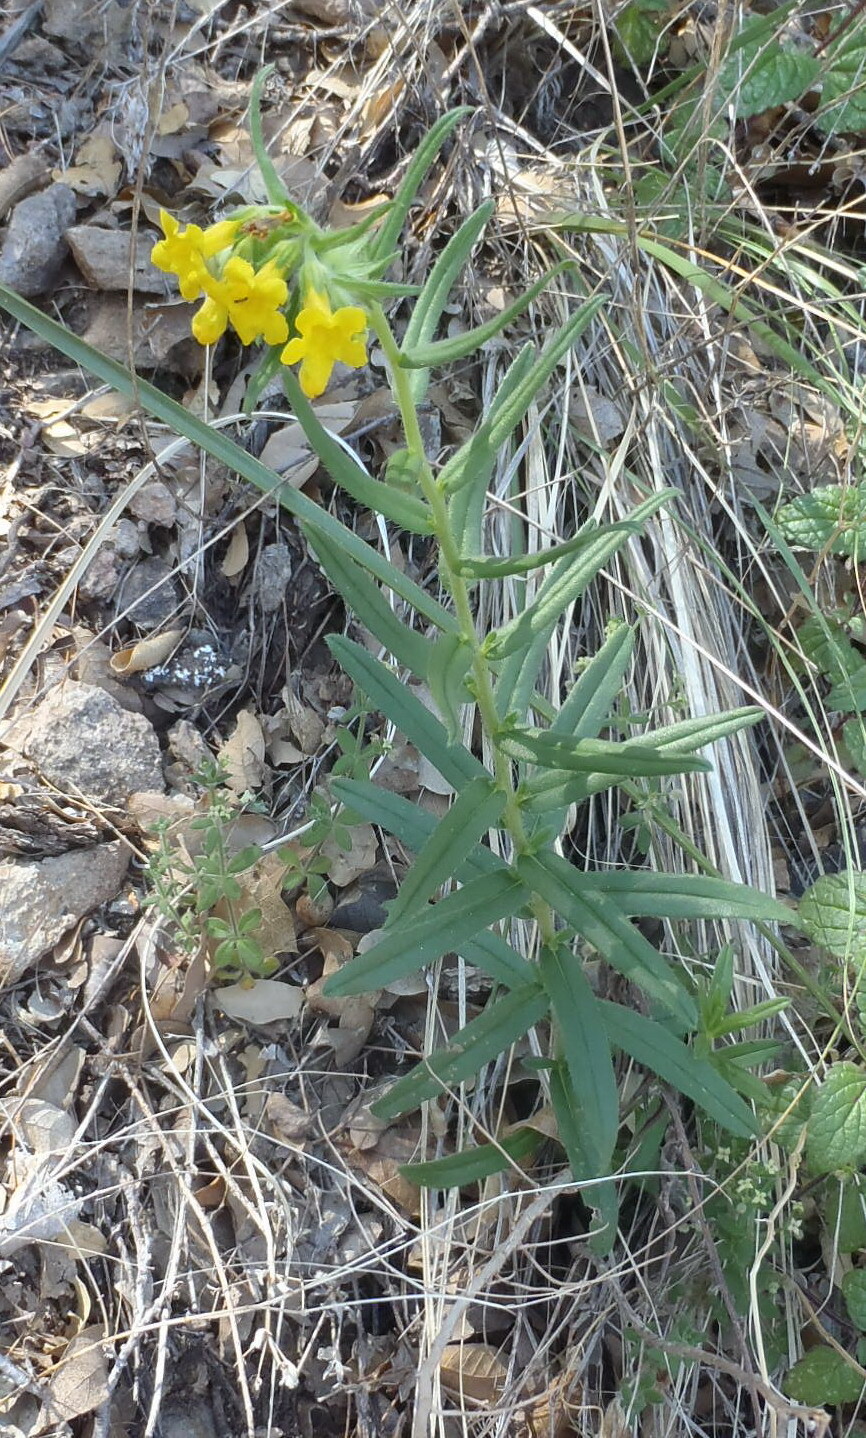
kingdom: Plantae
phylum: Tracheophyta
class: Magnoliopsida
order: Boraginales
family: Boraginaceae
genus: Lithospermum
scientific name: Lithospermum multiflorum
